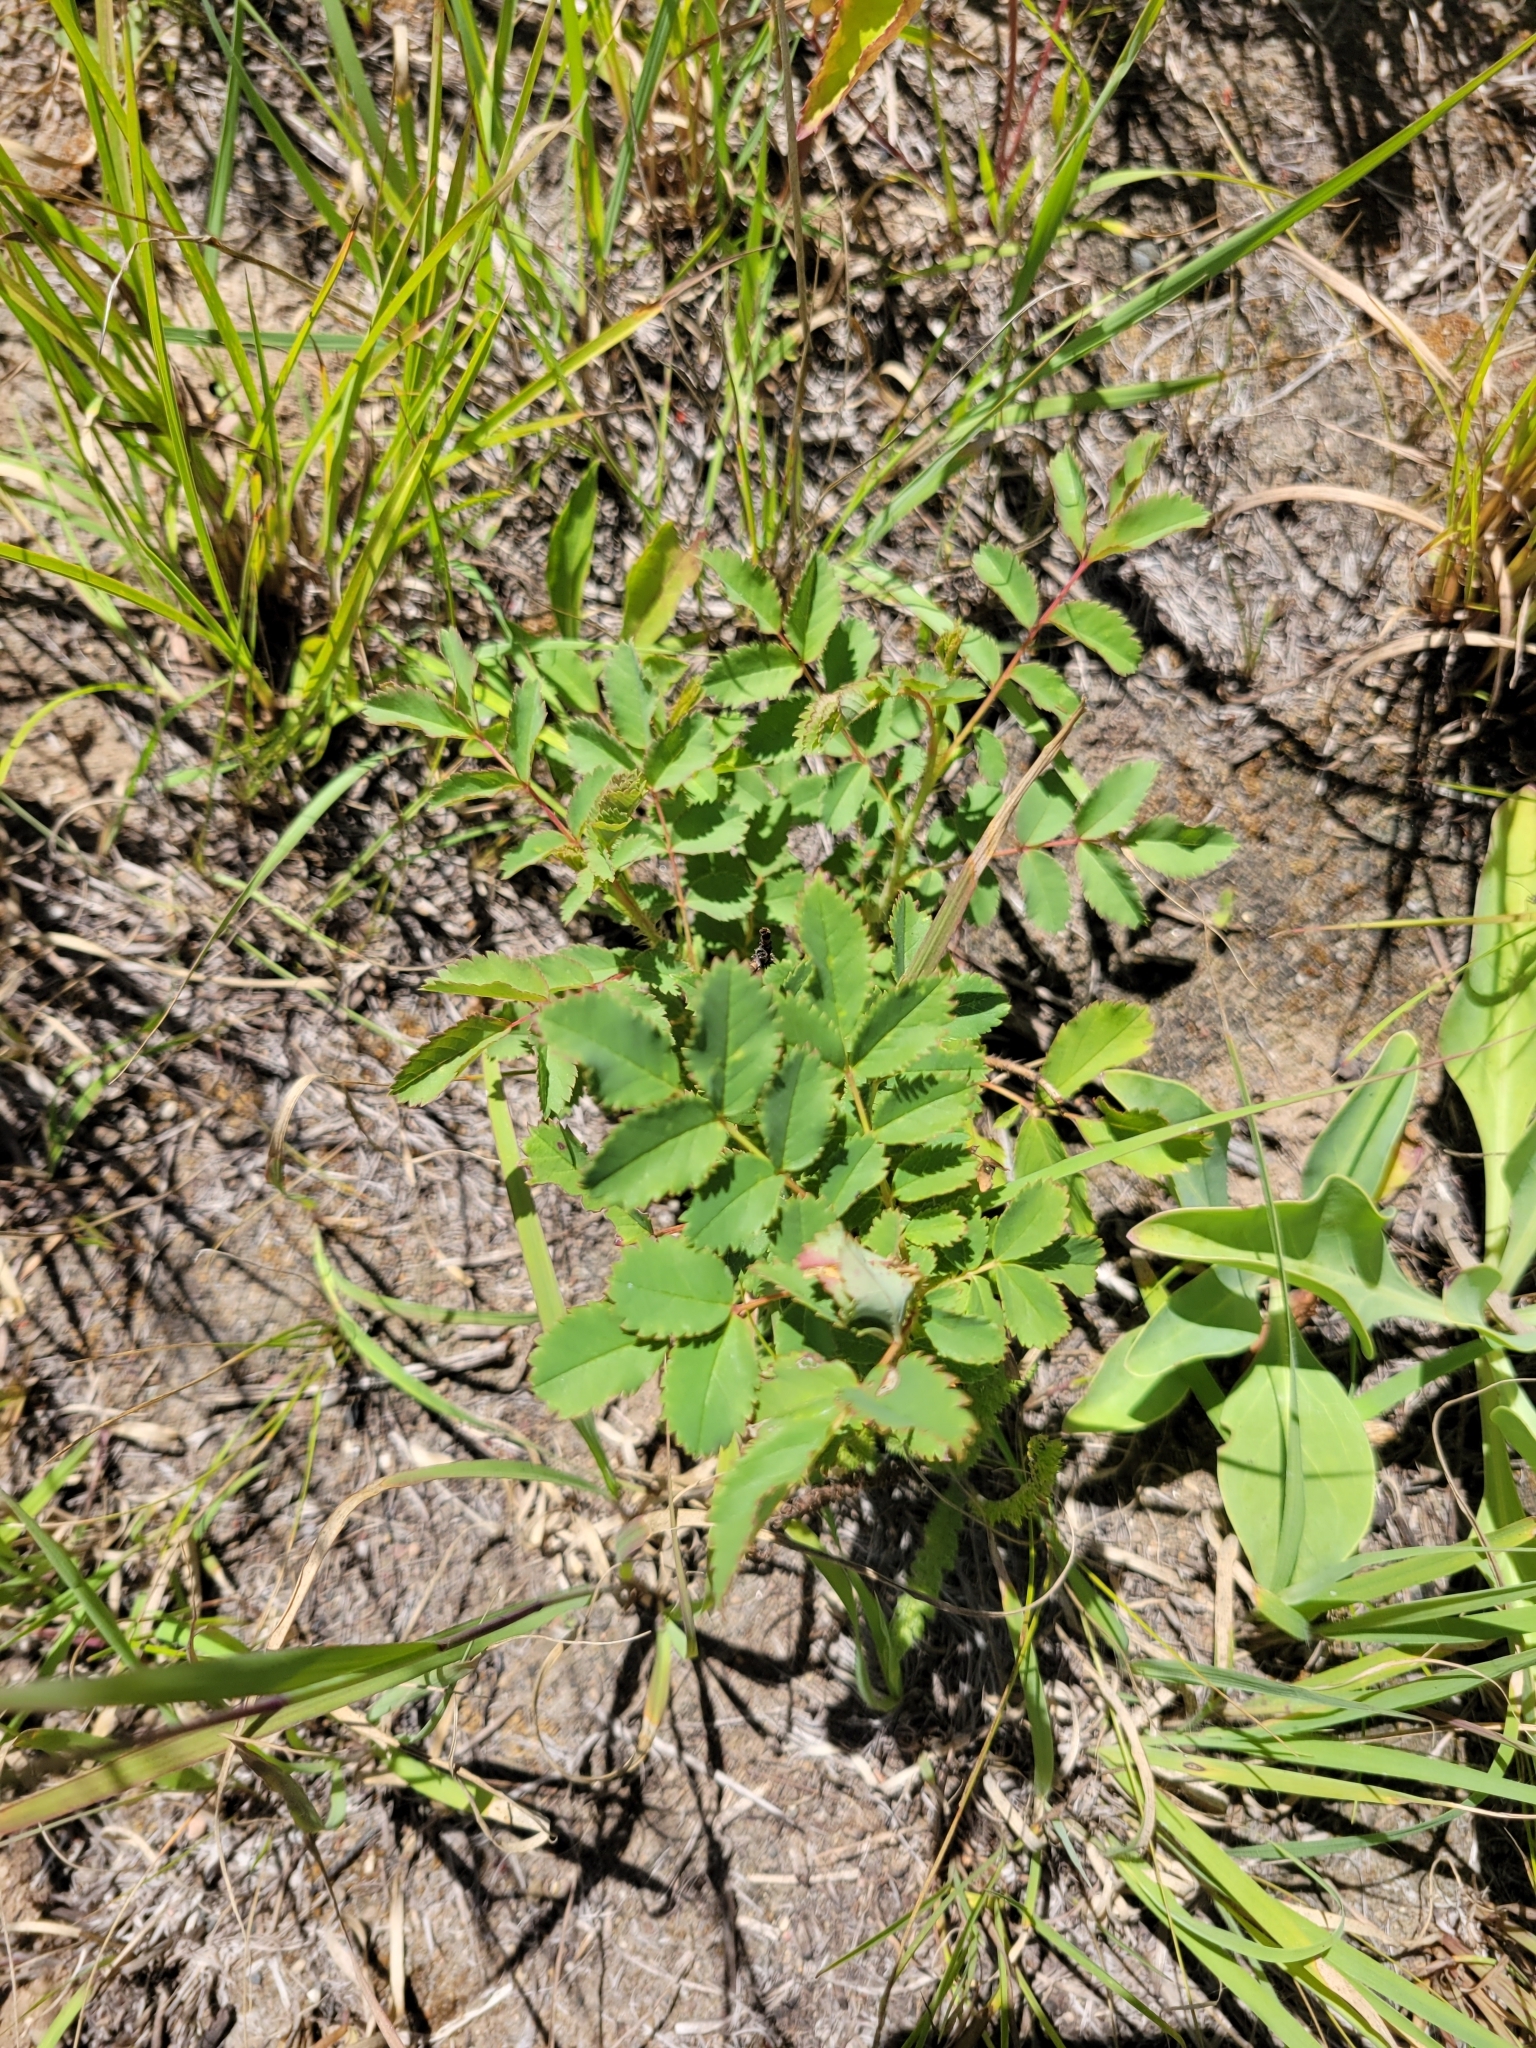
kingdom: Plantae
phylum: Tracheophyta
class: Magnoliopsida
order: Rosales
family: Rosaceae
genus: Rosa
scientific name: Rosa arkansana
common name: Prairie rose
